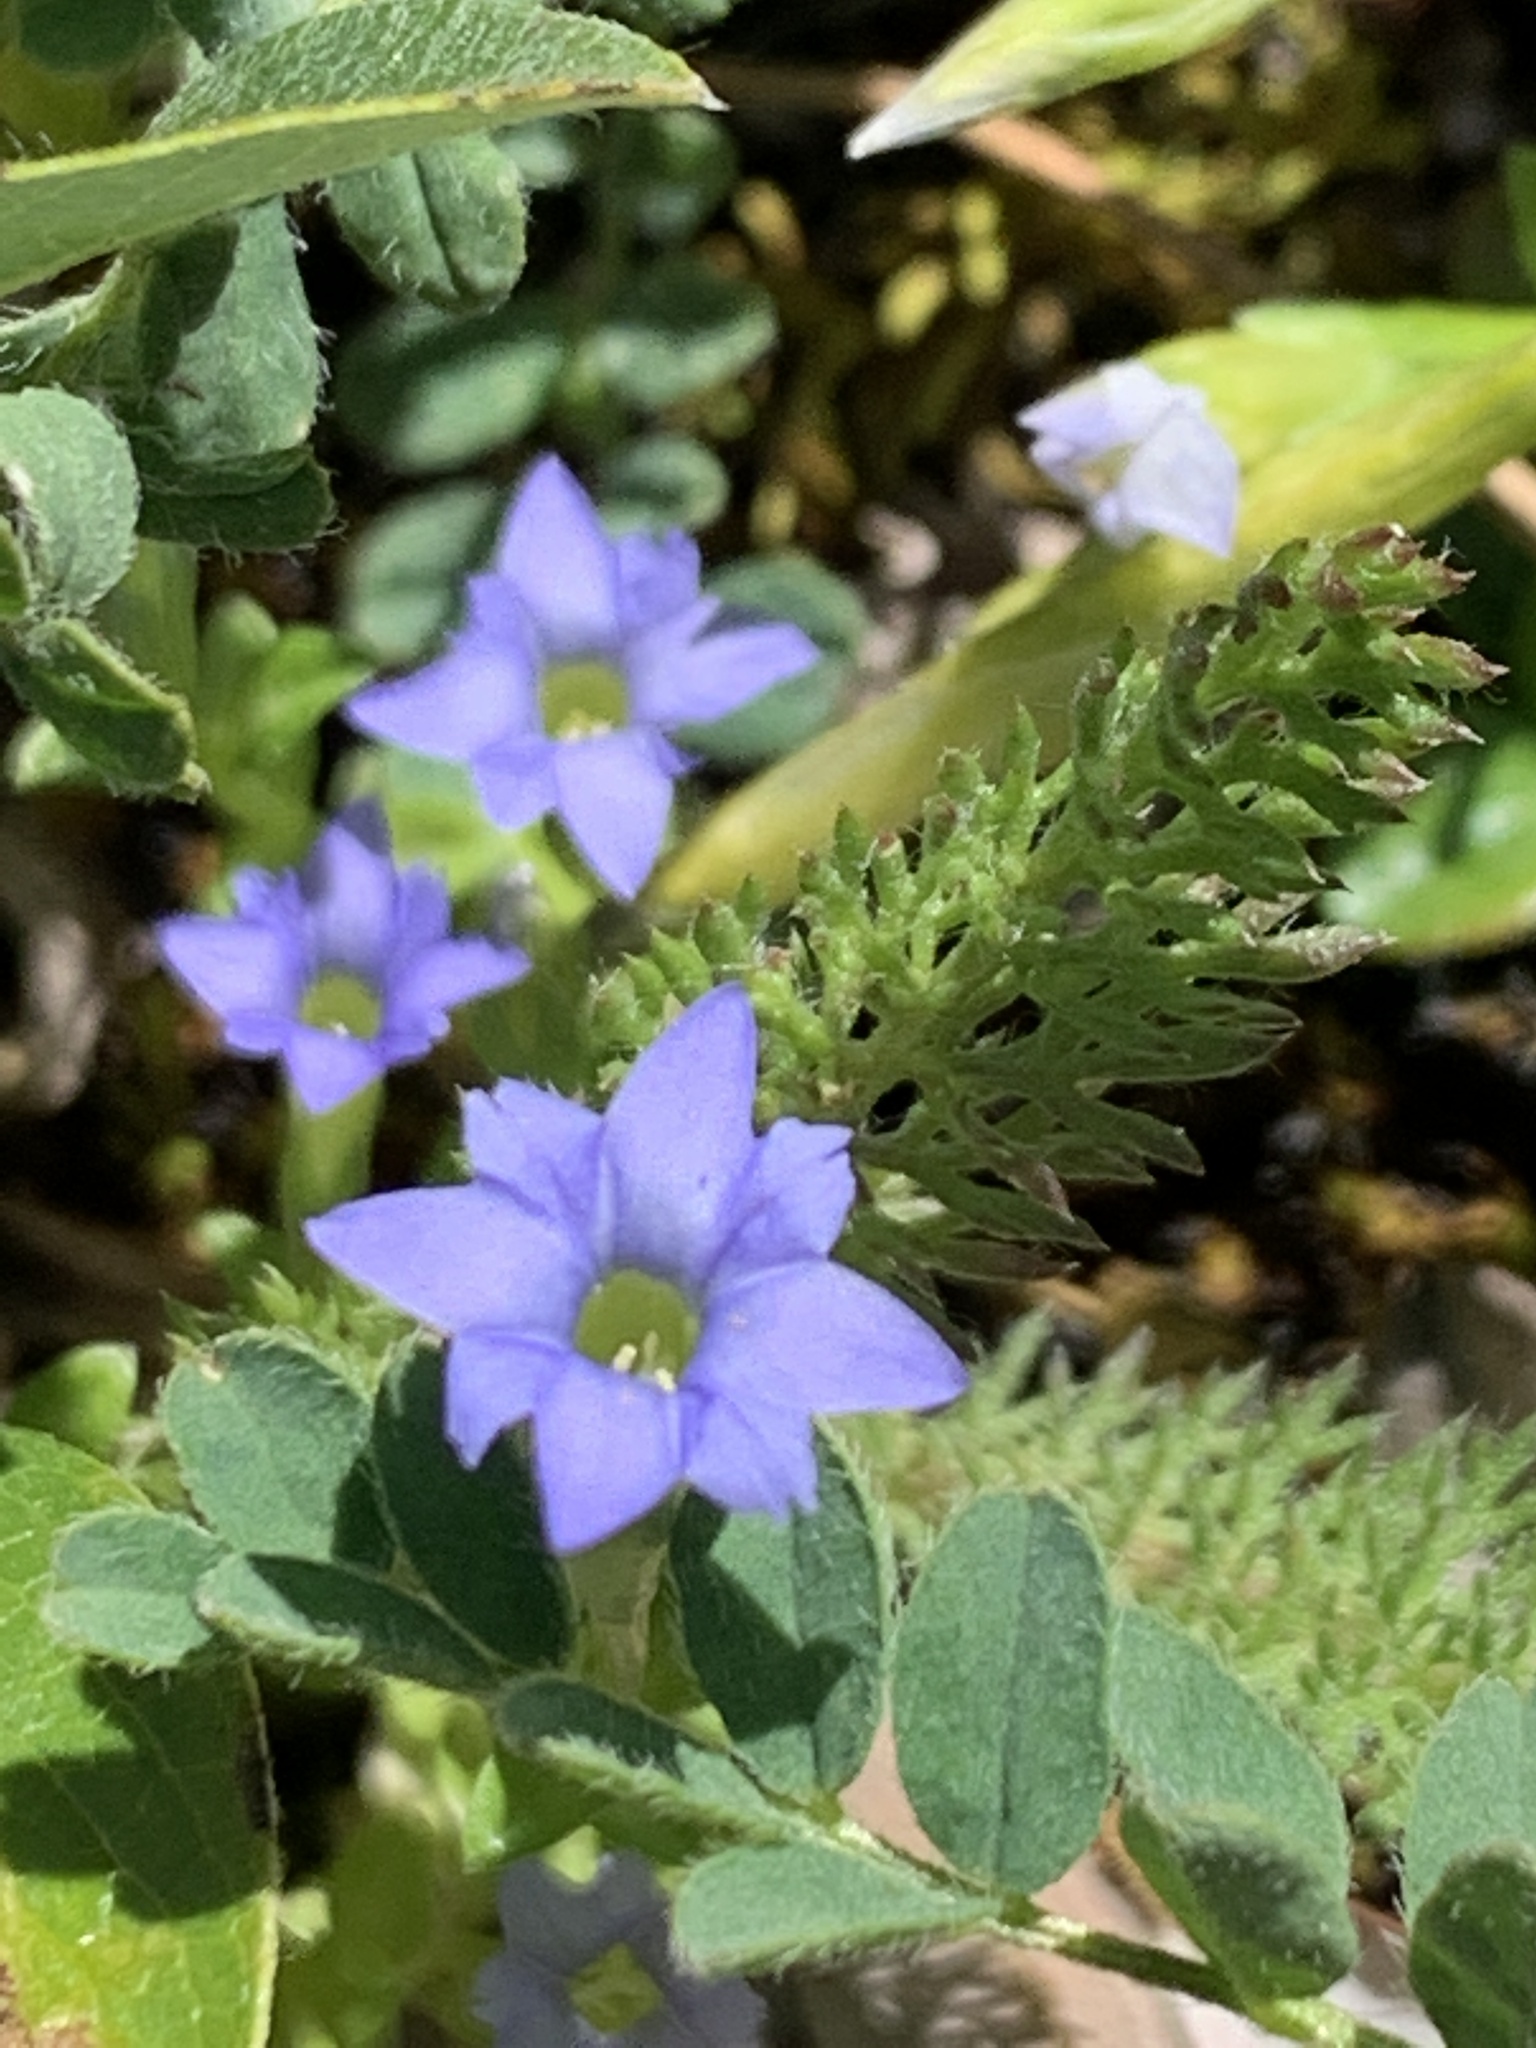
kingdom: Plantae
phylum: Tracheophyta
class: Magnoliopsida
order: Gentianales
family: Gentianaceae
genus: Gentiana
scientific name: Gentiana prostrata
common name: Moss gentian
